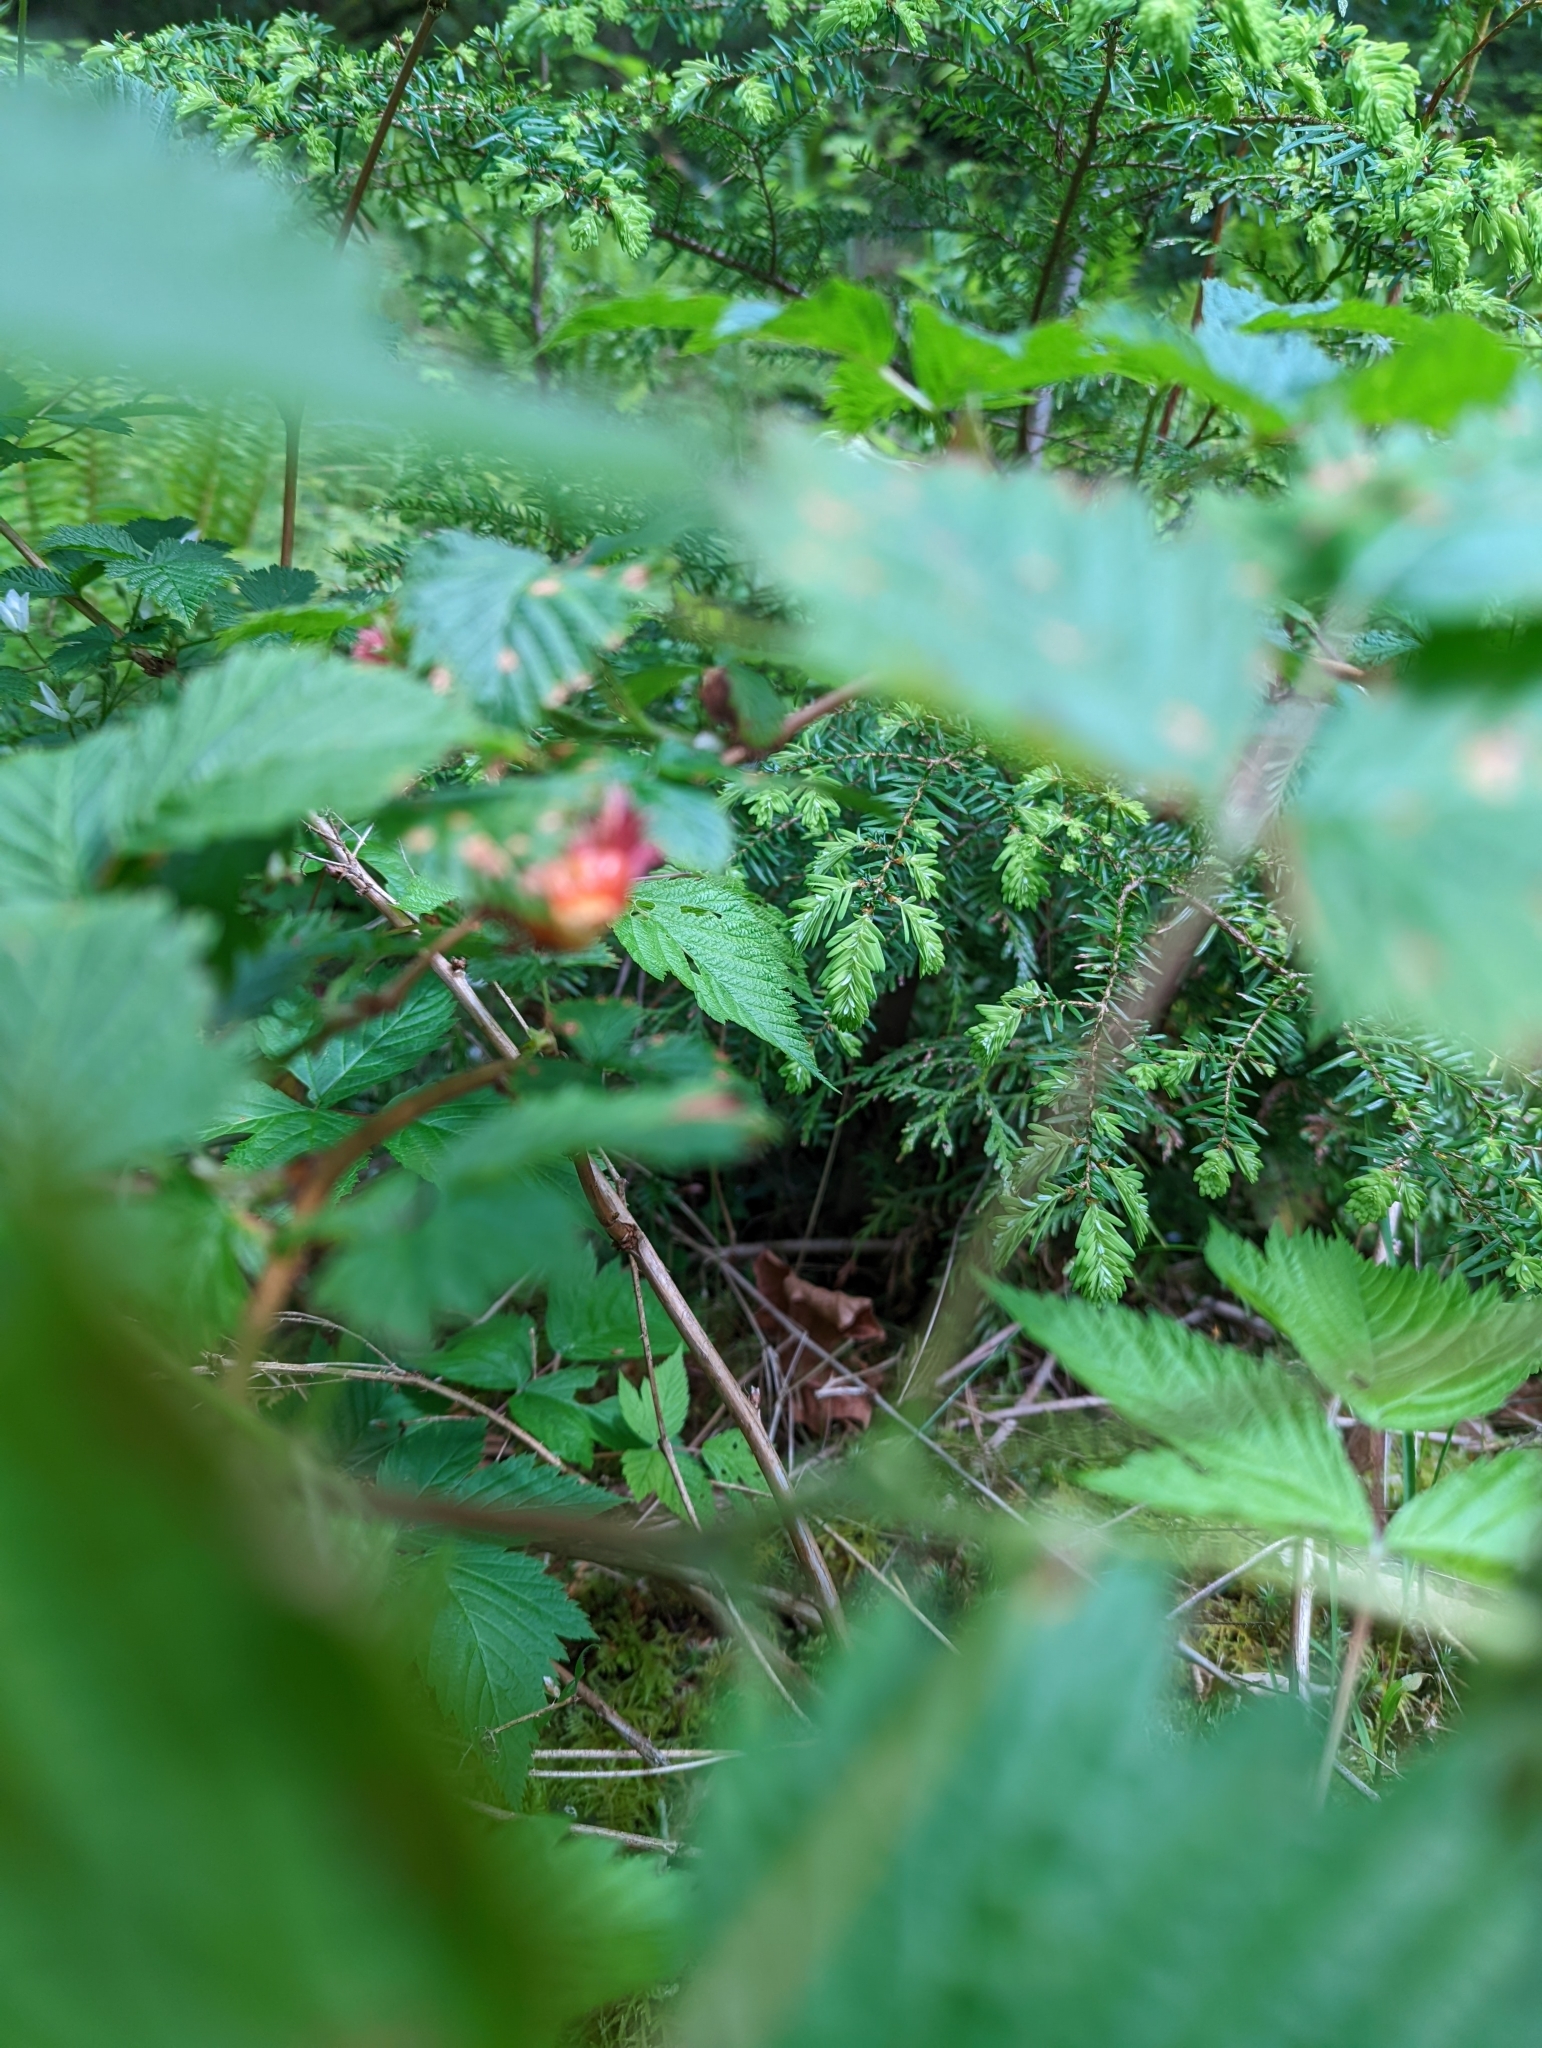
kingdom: Plantae
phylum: Tracheophyta
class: Magnoliopsida
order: Rosales
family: Rosaceae
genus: Rubus
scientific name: Rubus spectabilis
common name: Salmonberry
